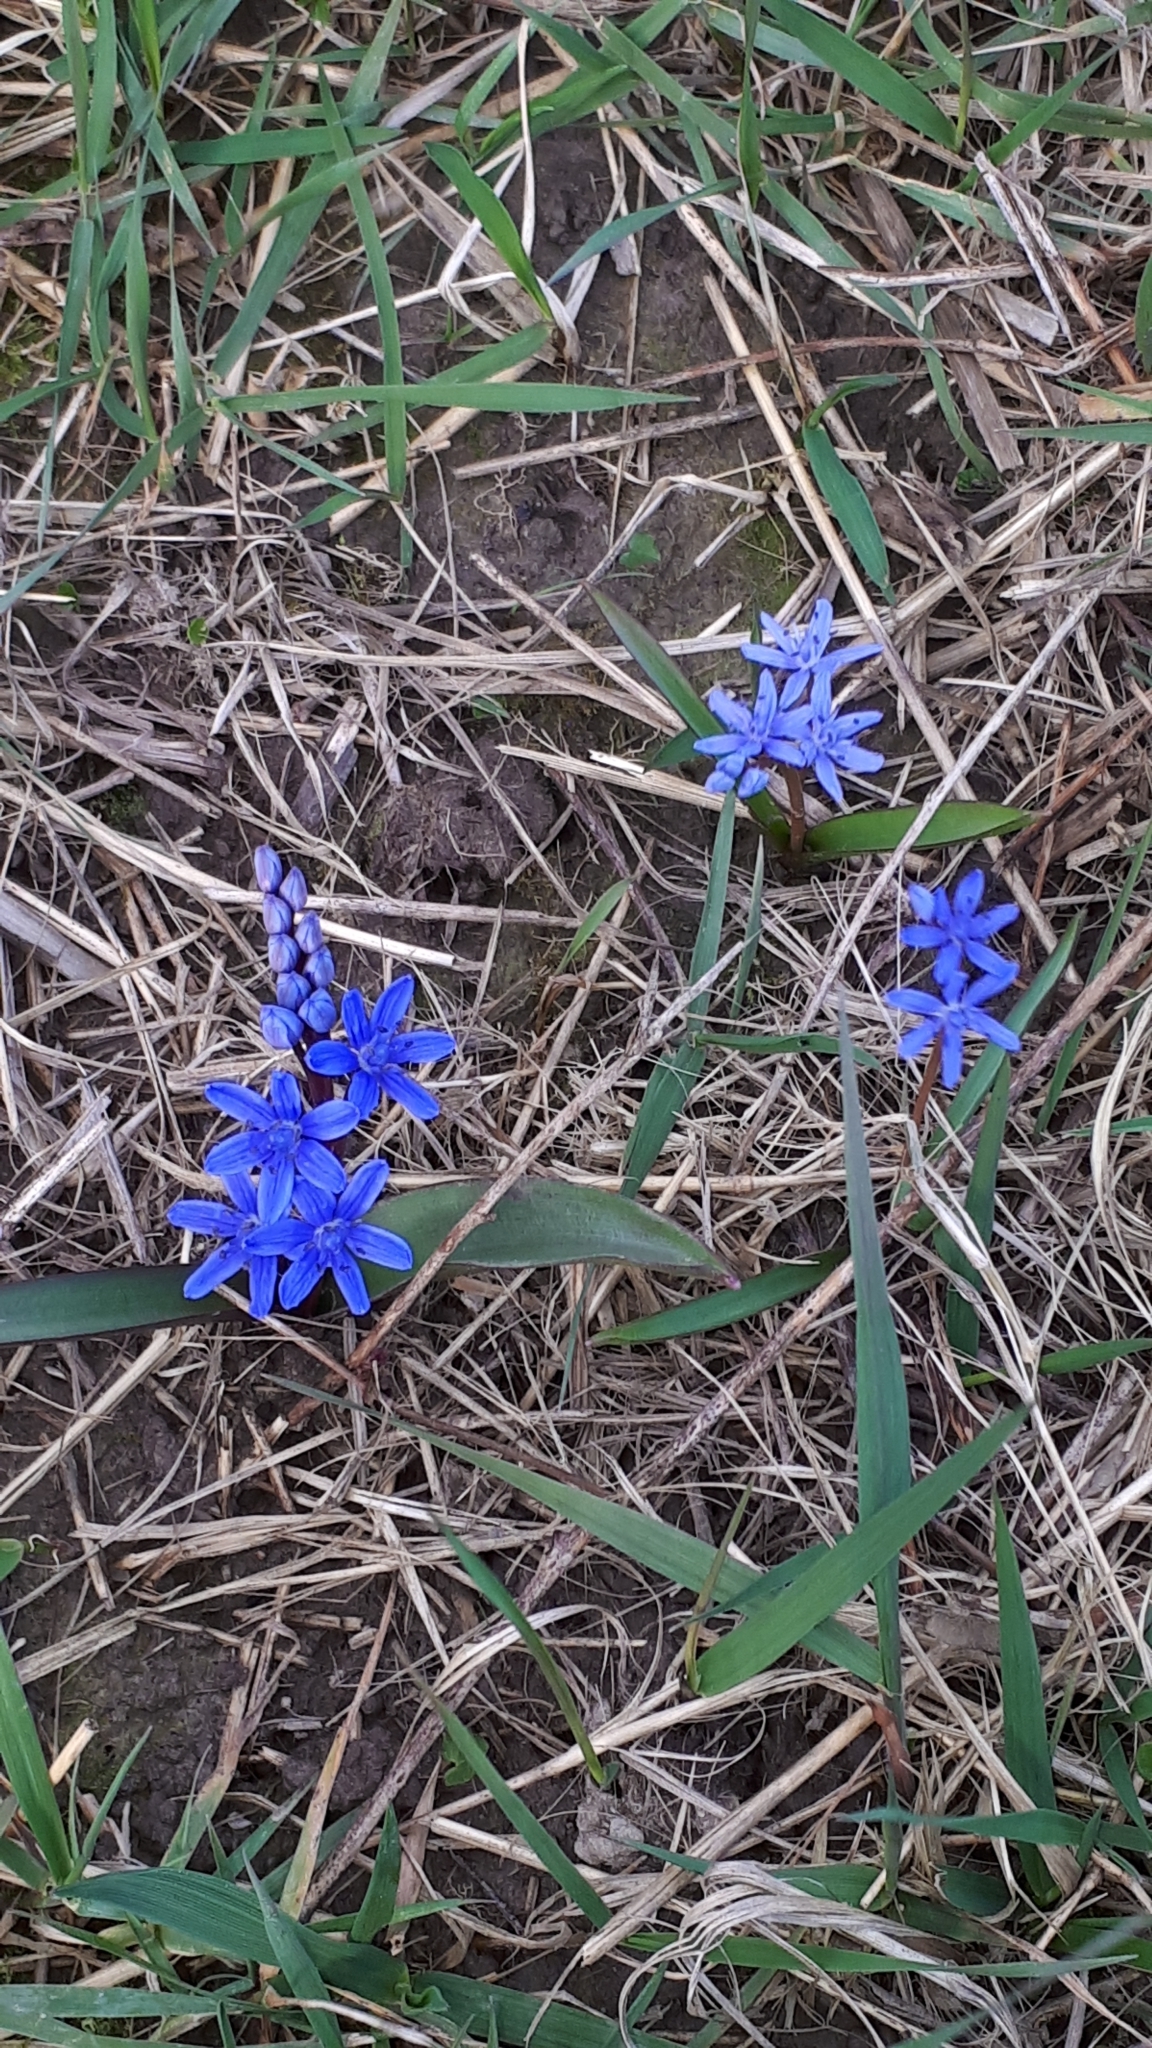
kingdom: Plantae
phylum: Tracheophyta
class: Liliopsida
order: Asparagales
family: Asparagaceae
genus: Scilla
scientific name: Scilla bifolia
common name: Alpine squill
